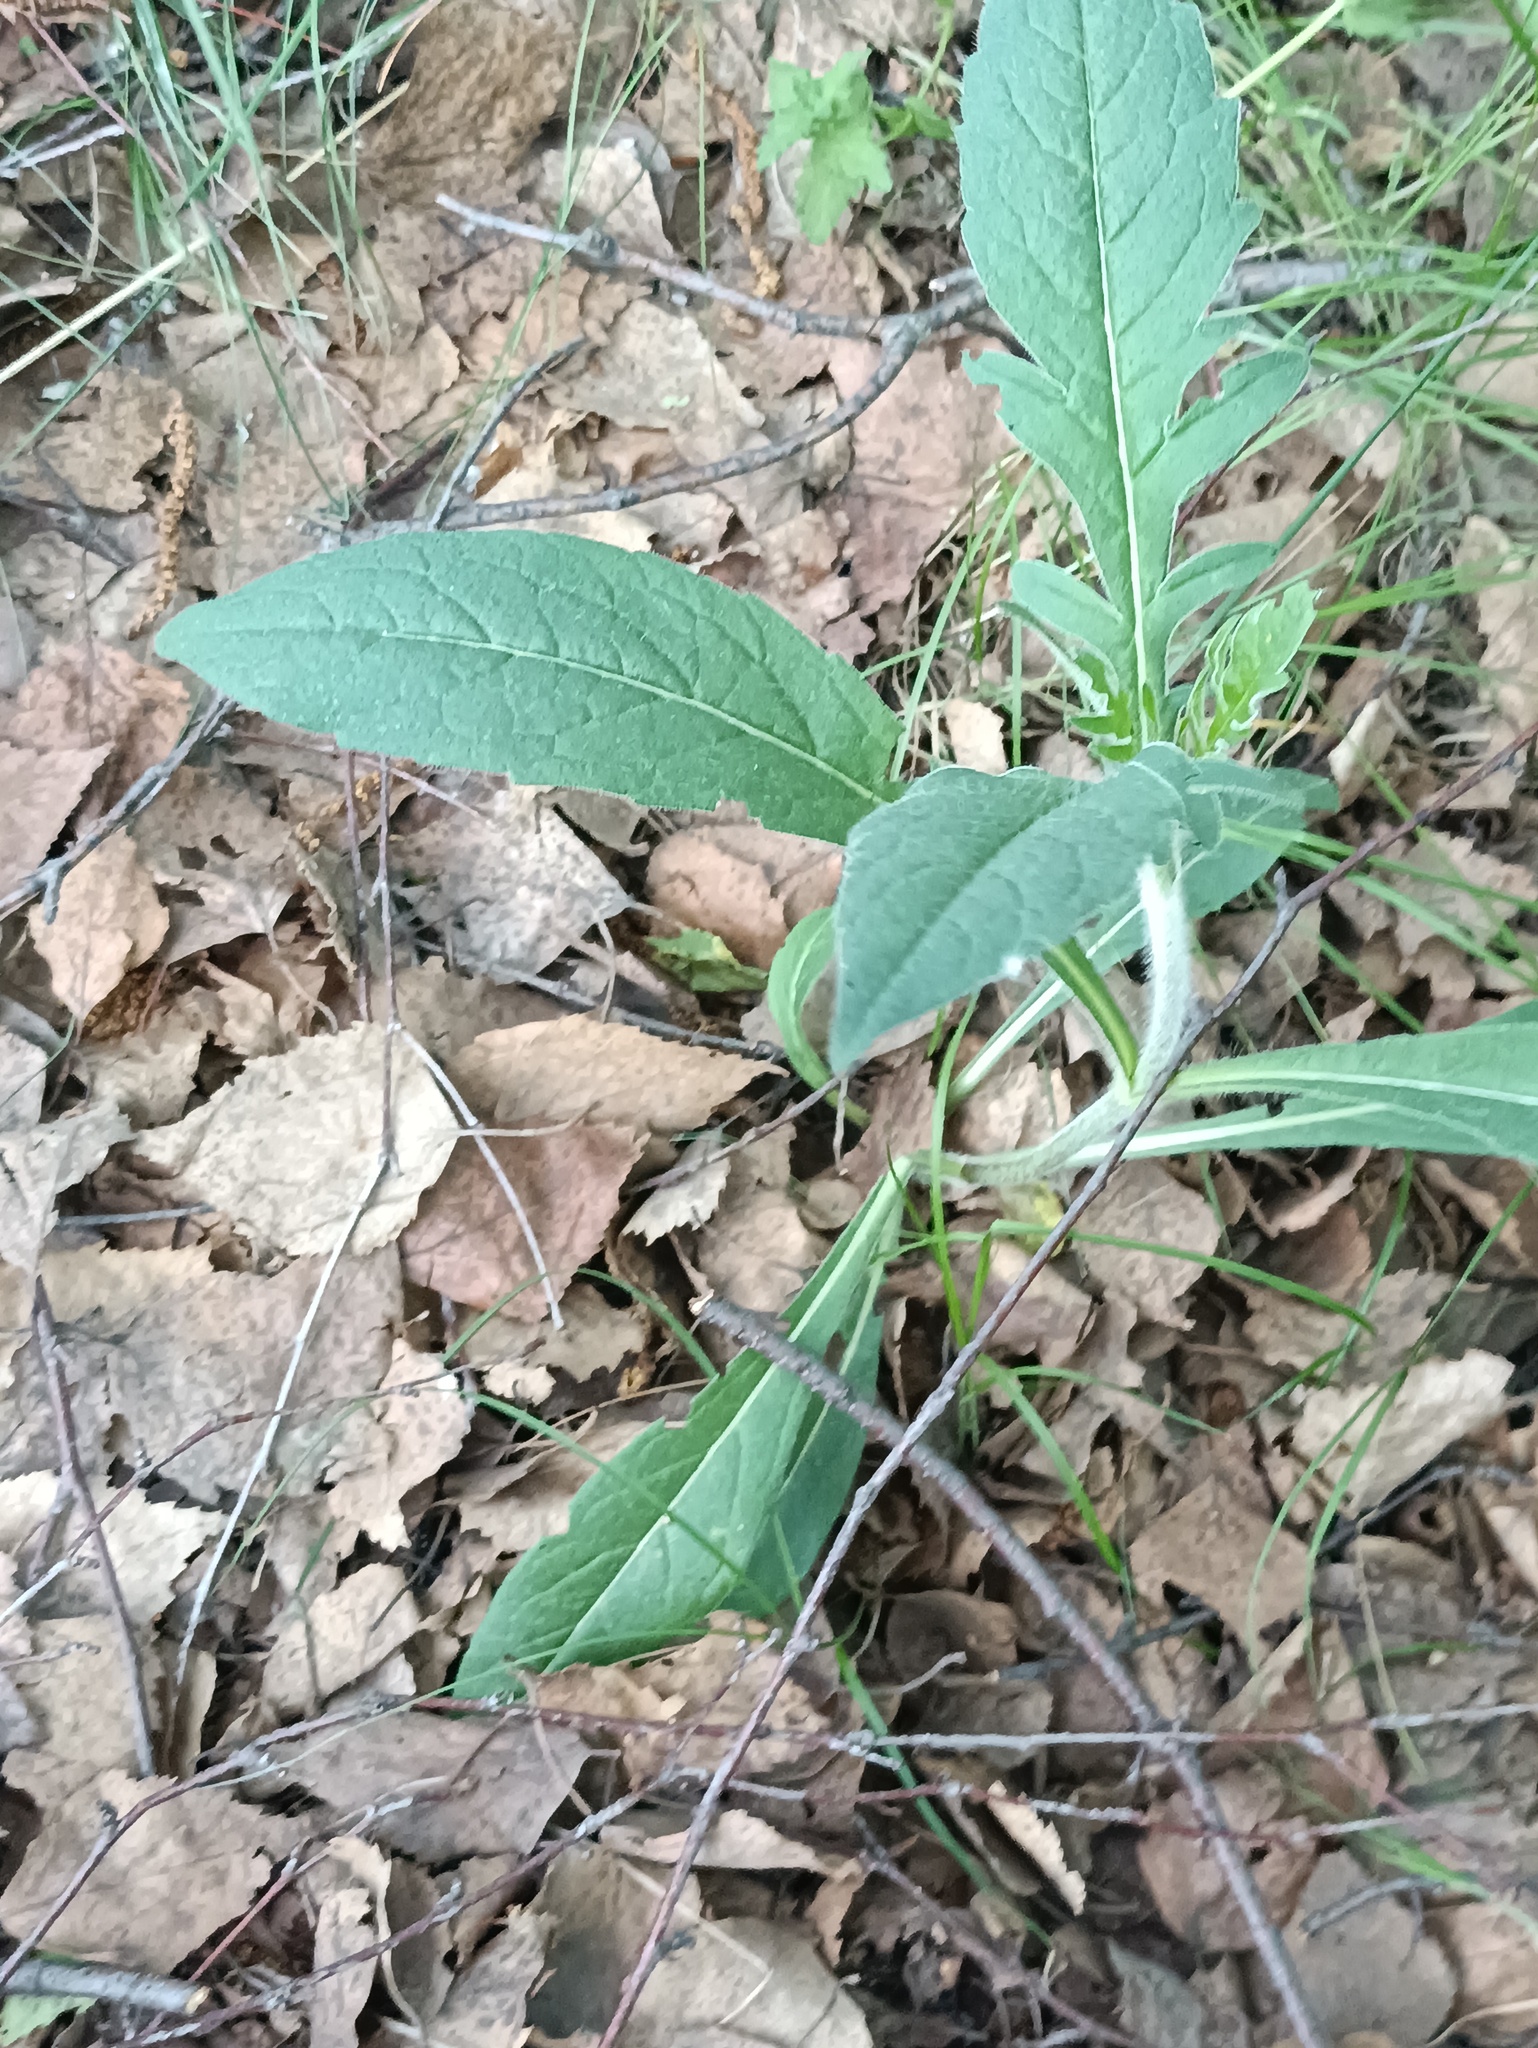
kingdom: Plantae
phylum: Tracheophyta
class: Magnoliopsida
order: Dipsacales
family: Caprifoliaceae
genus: Knautia
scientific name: Knautia arvensis
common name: Field scabiosa
